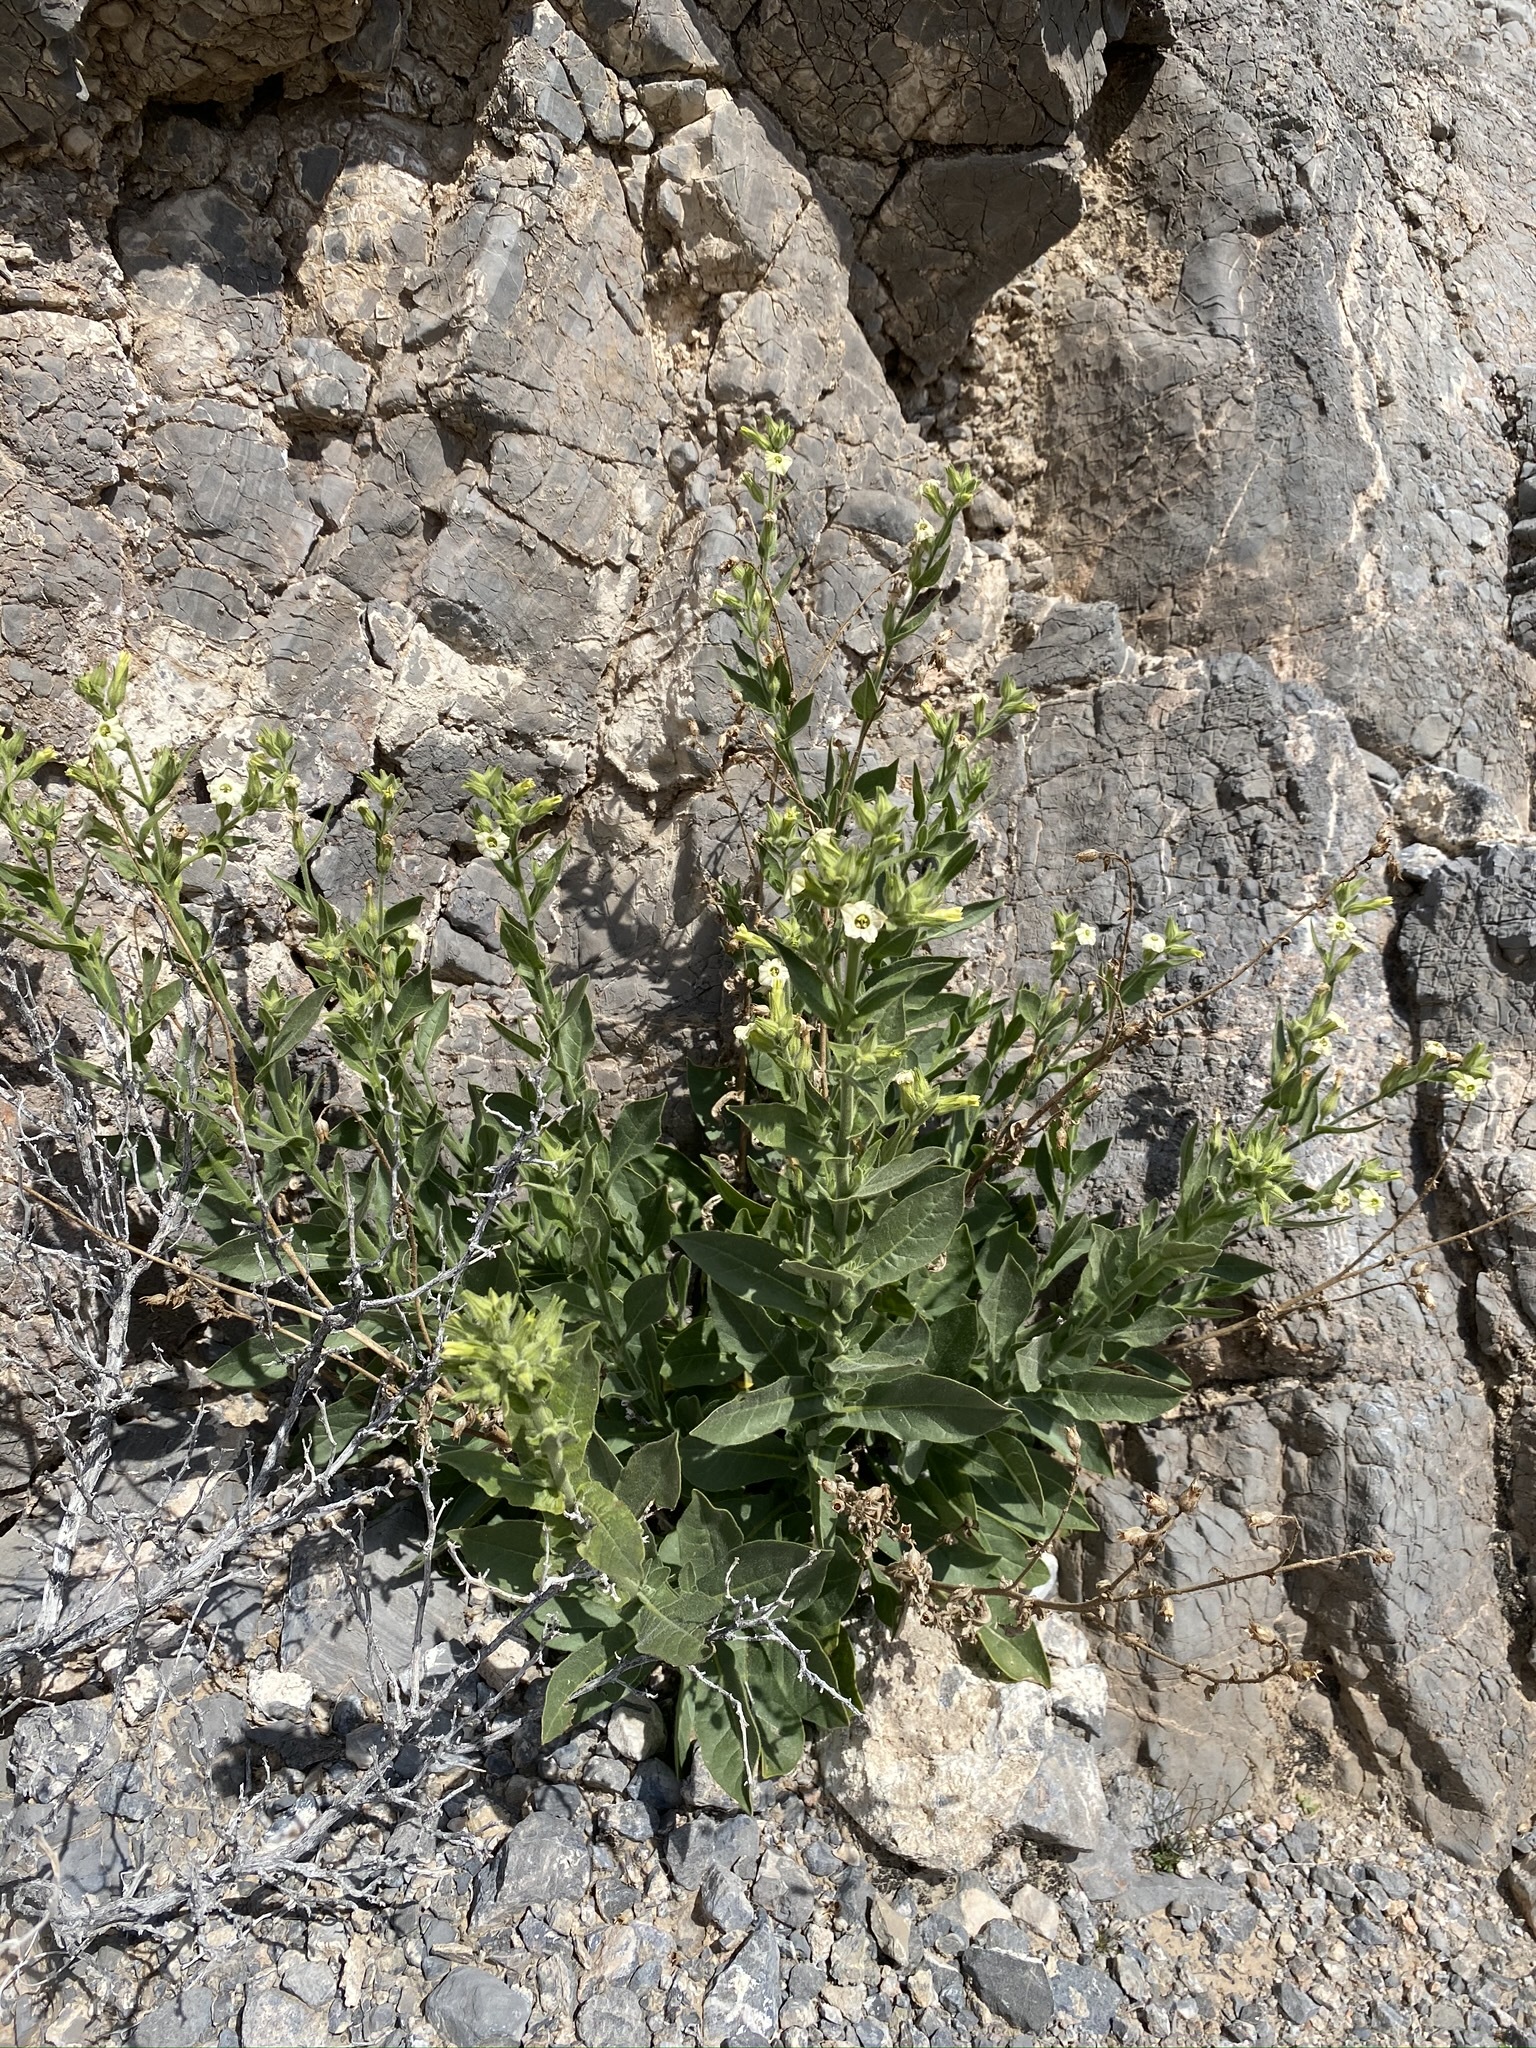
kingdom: Plantae
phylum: Tracheophyta
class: Magnoliopsida
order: Solanales
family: Solanaceae
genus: Nicotiana
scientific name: Nicotiana obtusifolia
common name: Desert tobacco
